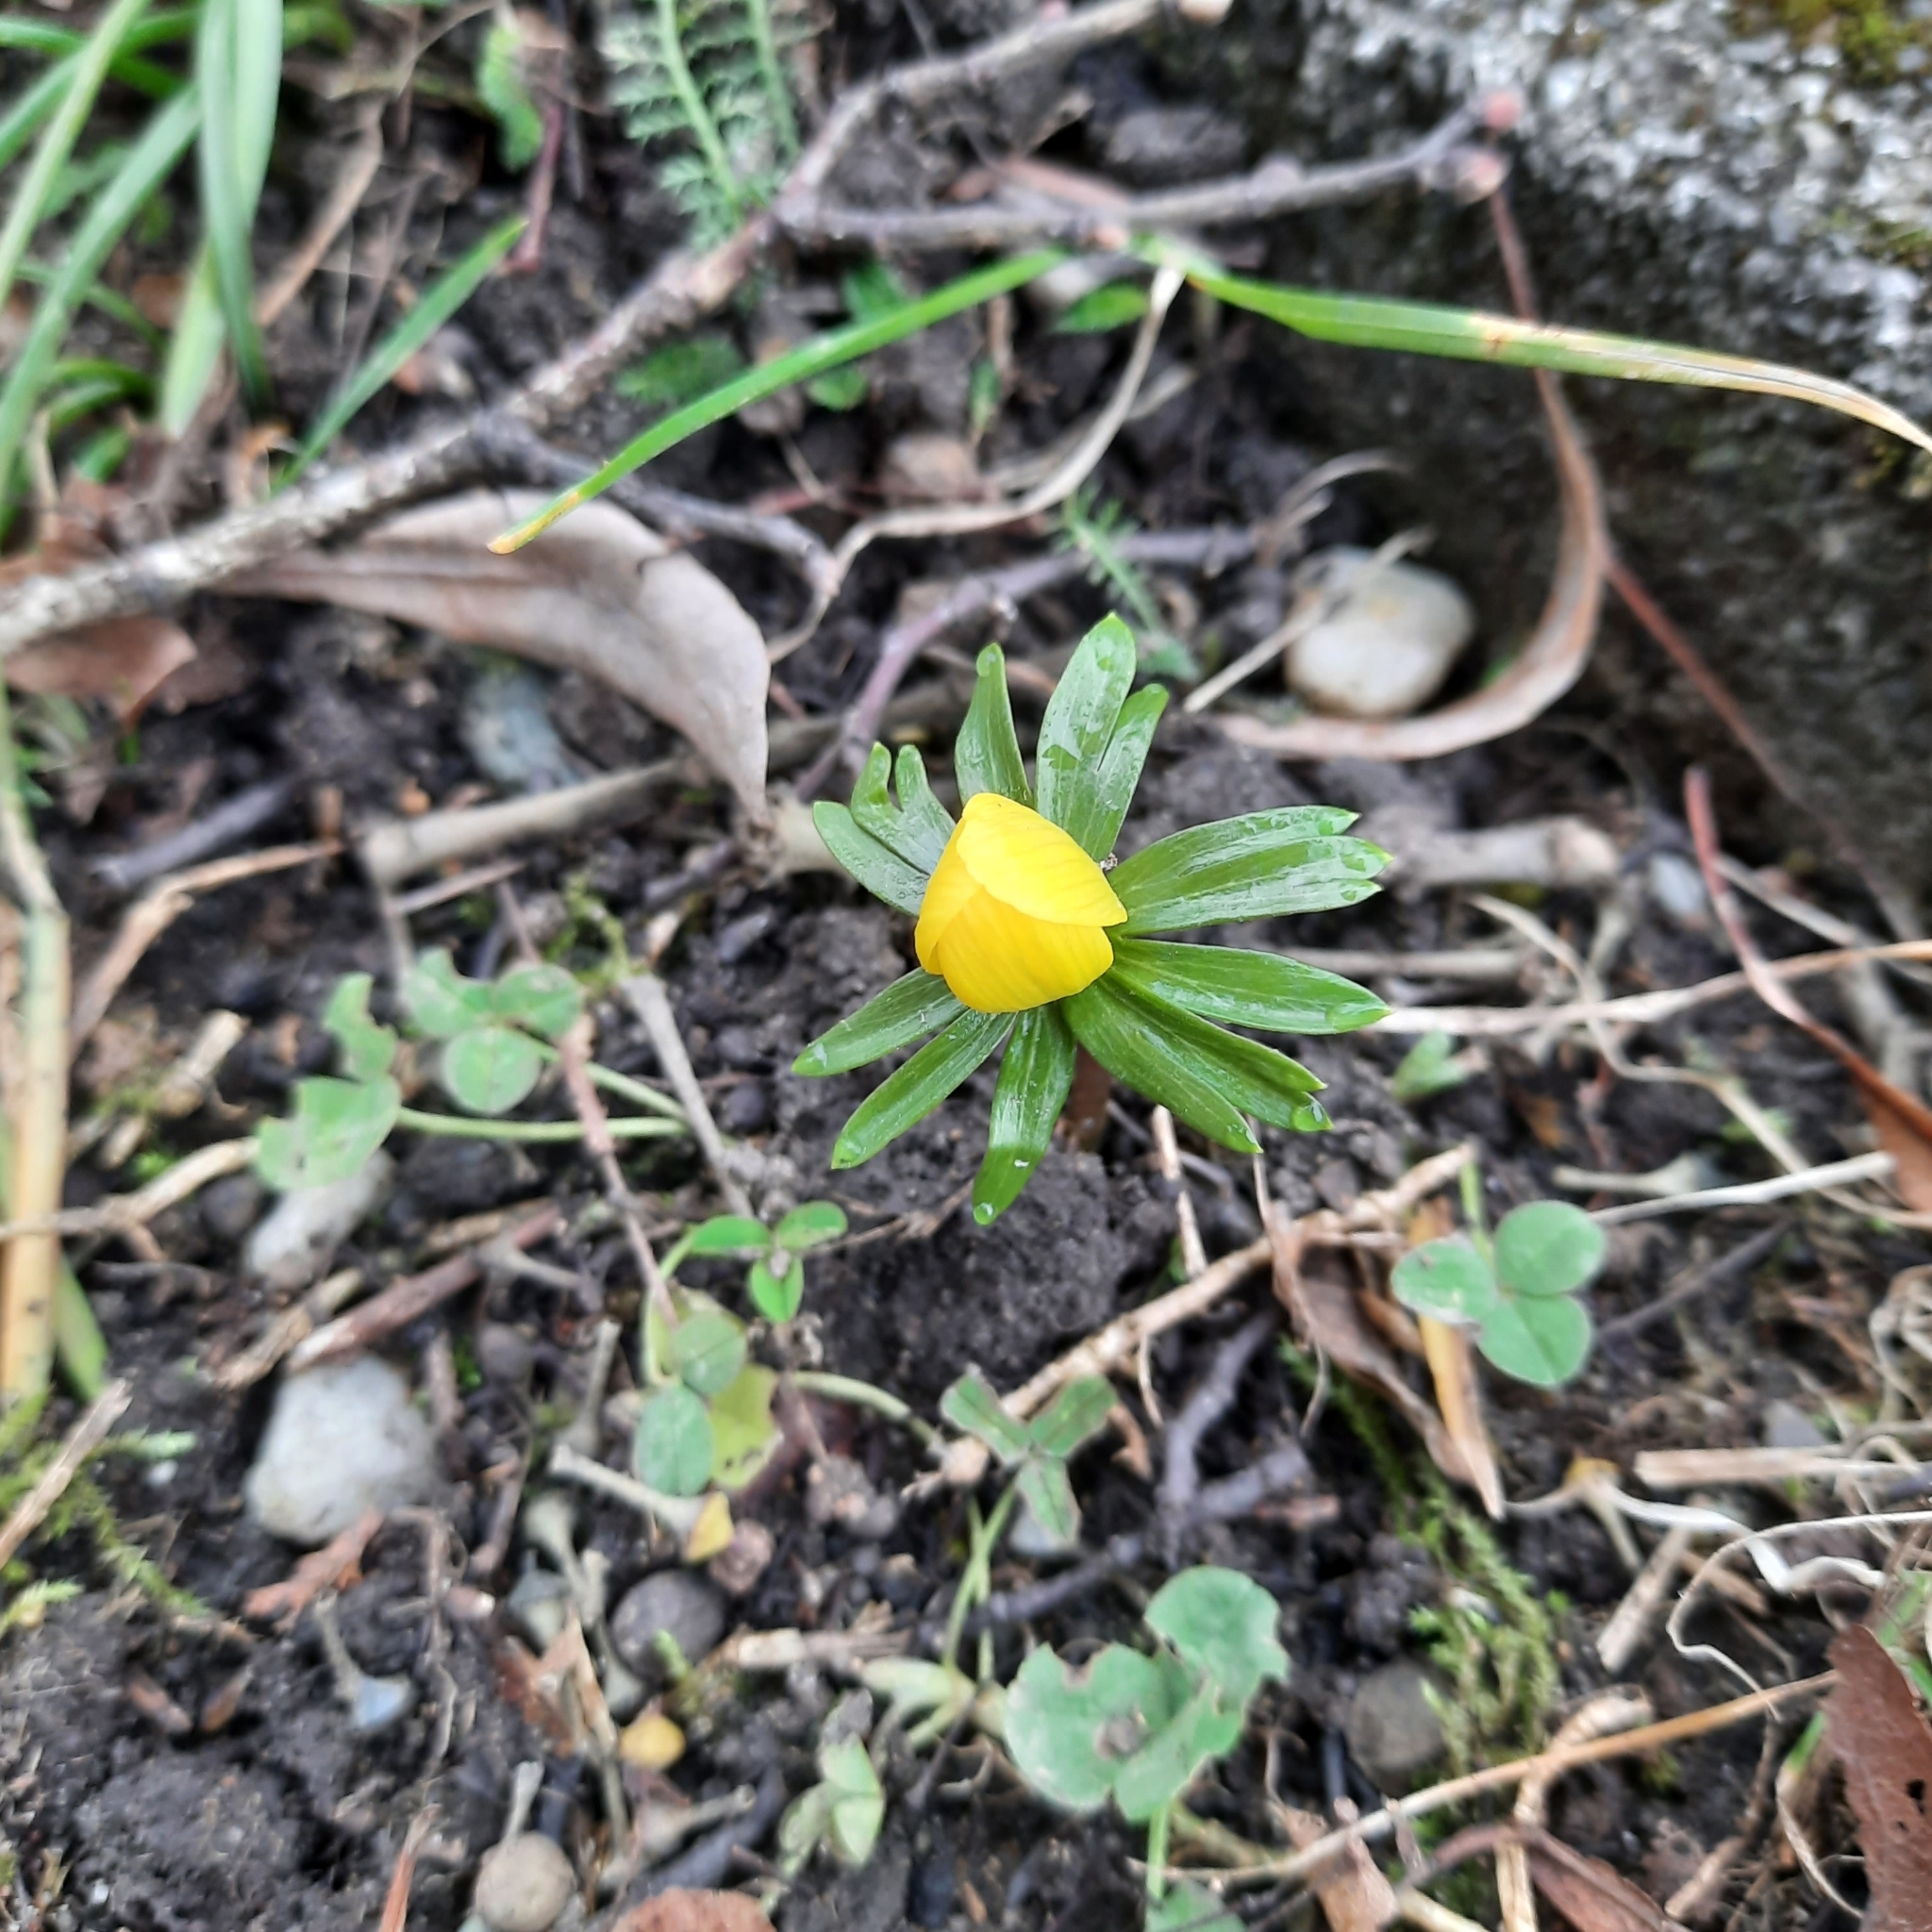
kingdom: Plantae
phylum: Tracheophyta
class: Magnoliopsida
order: Ranunculales
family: Ranunculaceae
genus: Eranthis
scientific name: Eranthis hyemalis
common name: Winter aconite
